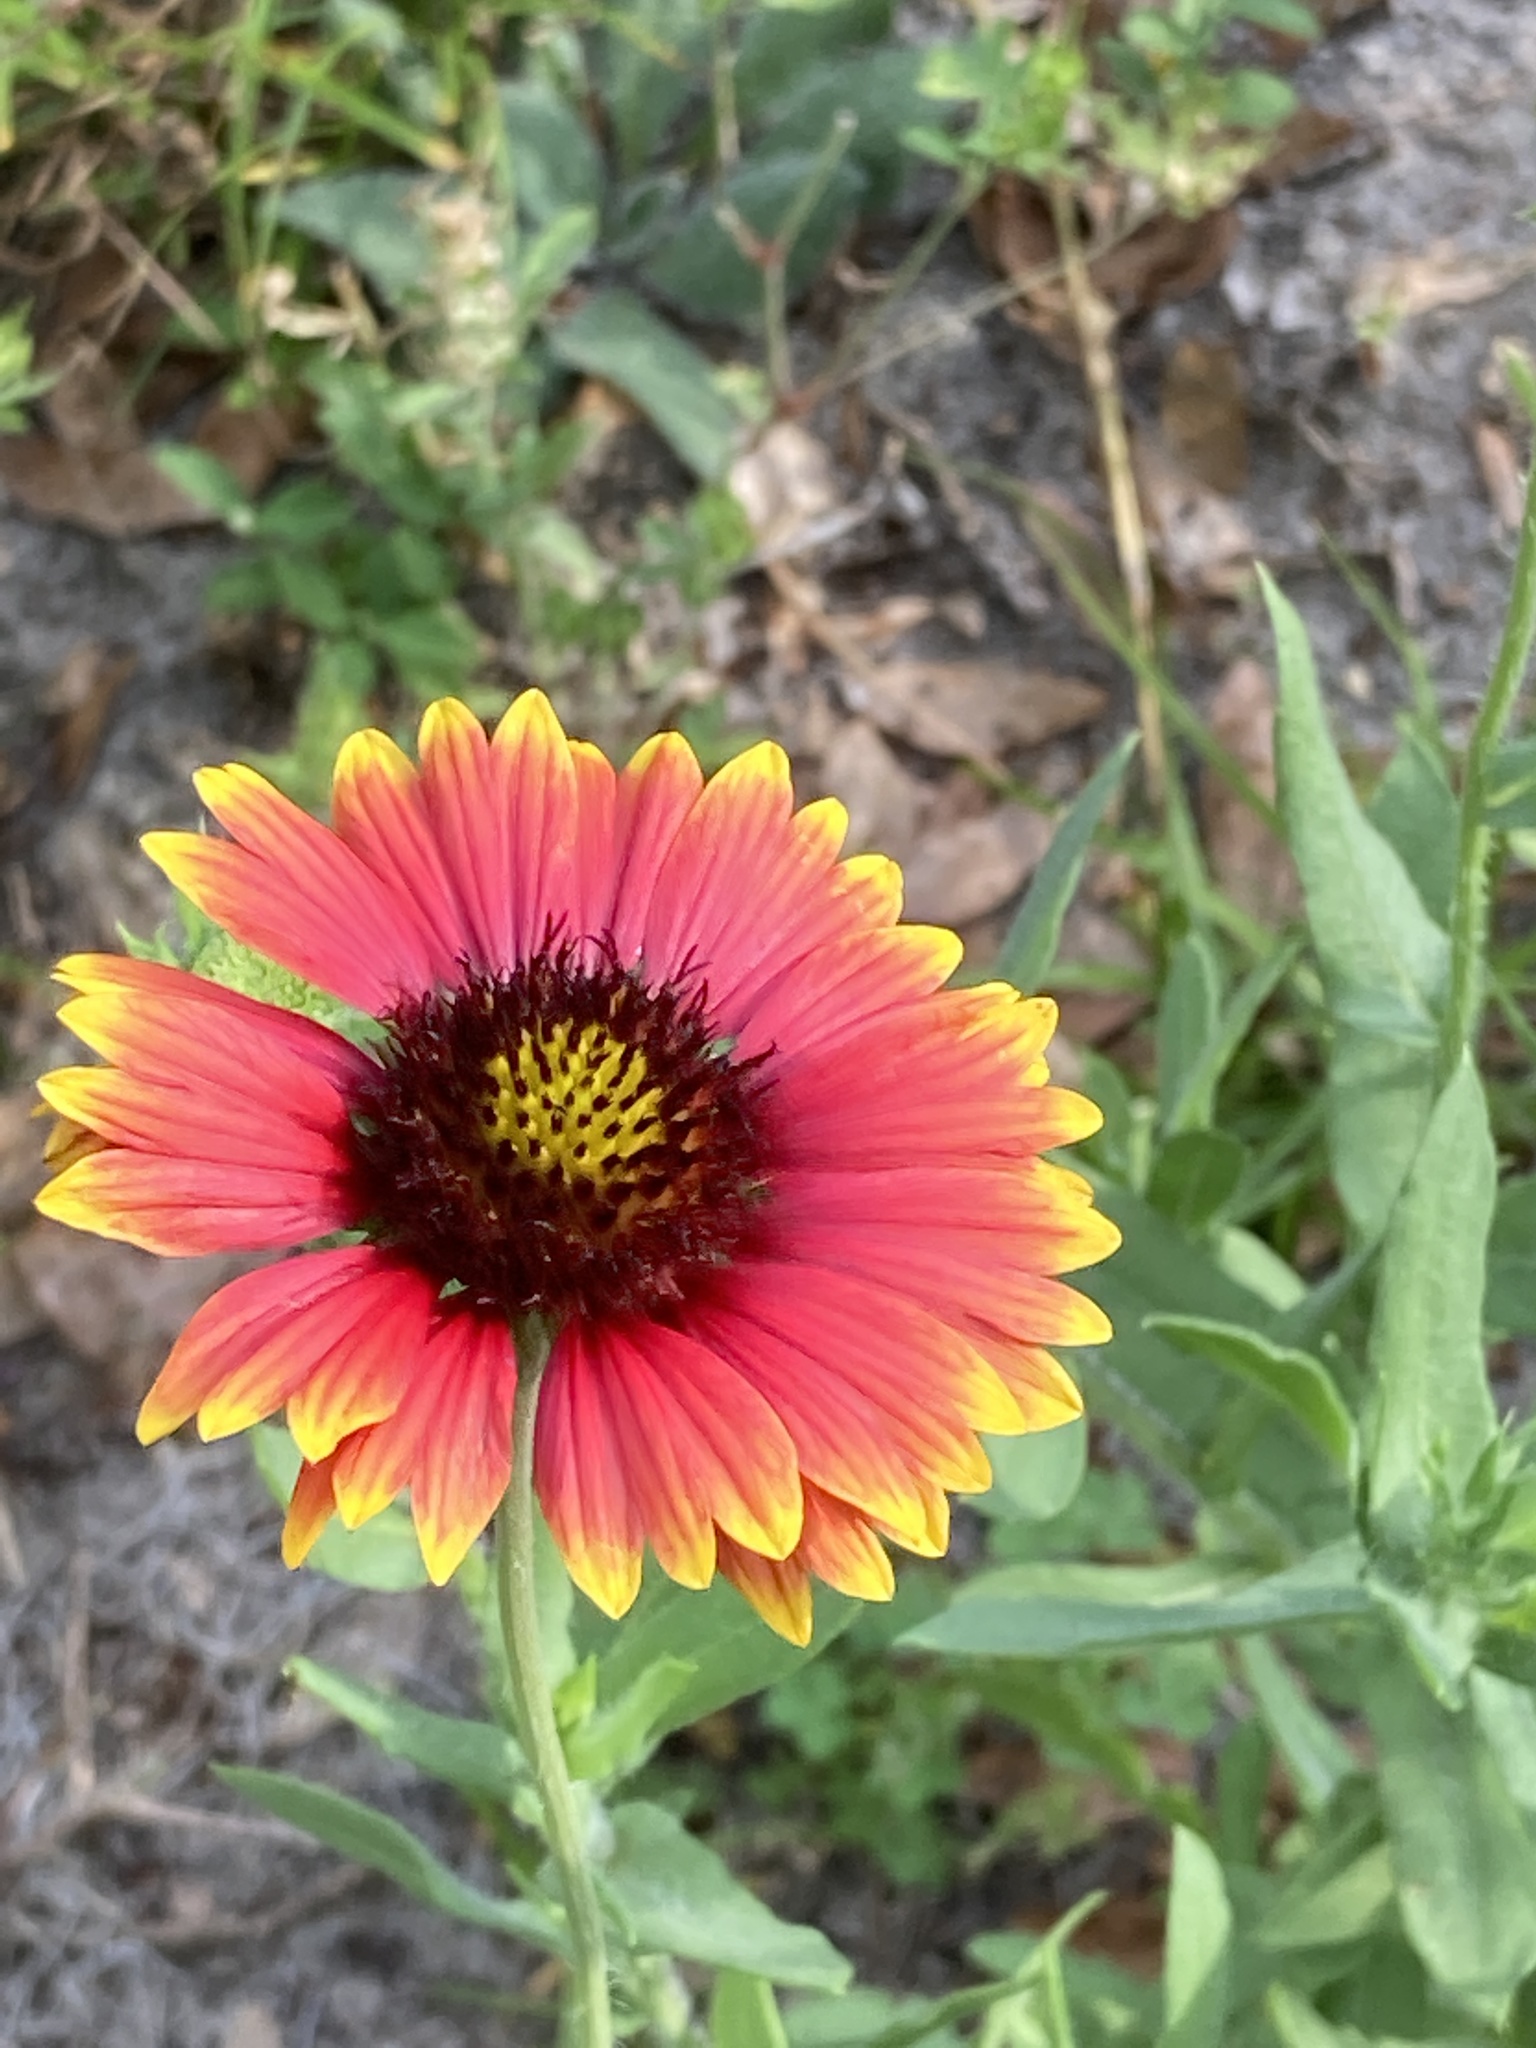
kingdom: Plantae
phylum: Tracheophyta
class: Magnoliopsida
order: Asterales
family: Asteraceae
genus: Gaillardia
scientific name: Gaillardia pulchella
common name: Firewheel
